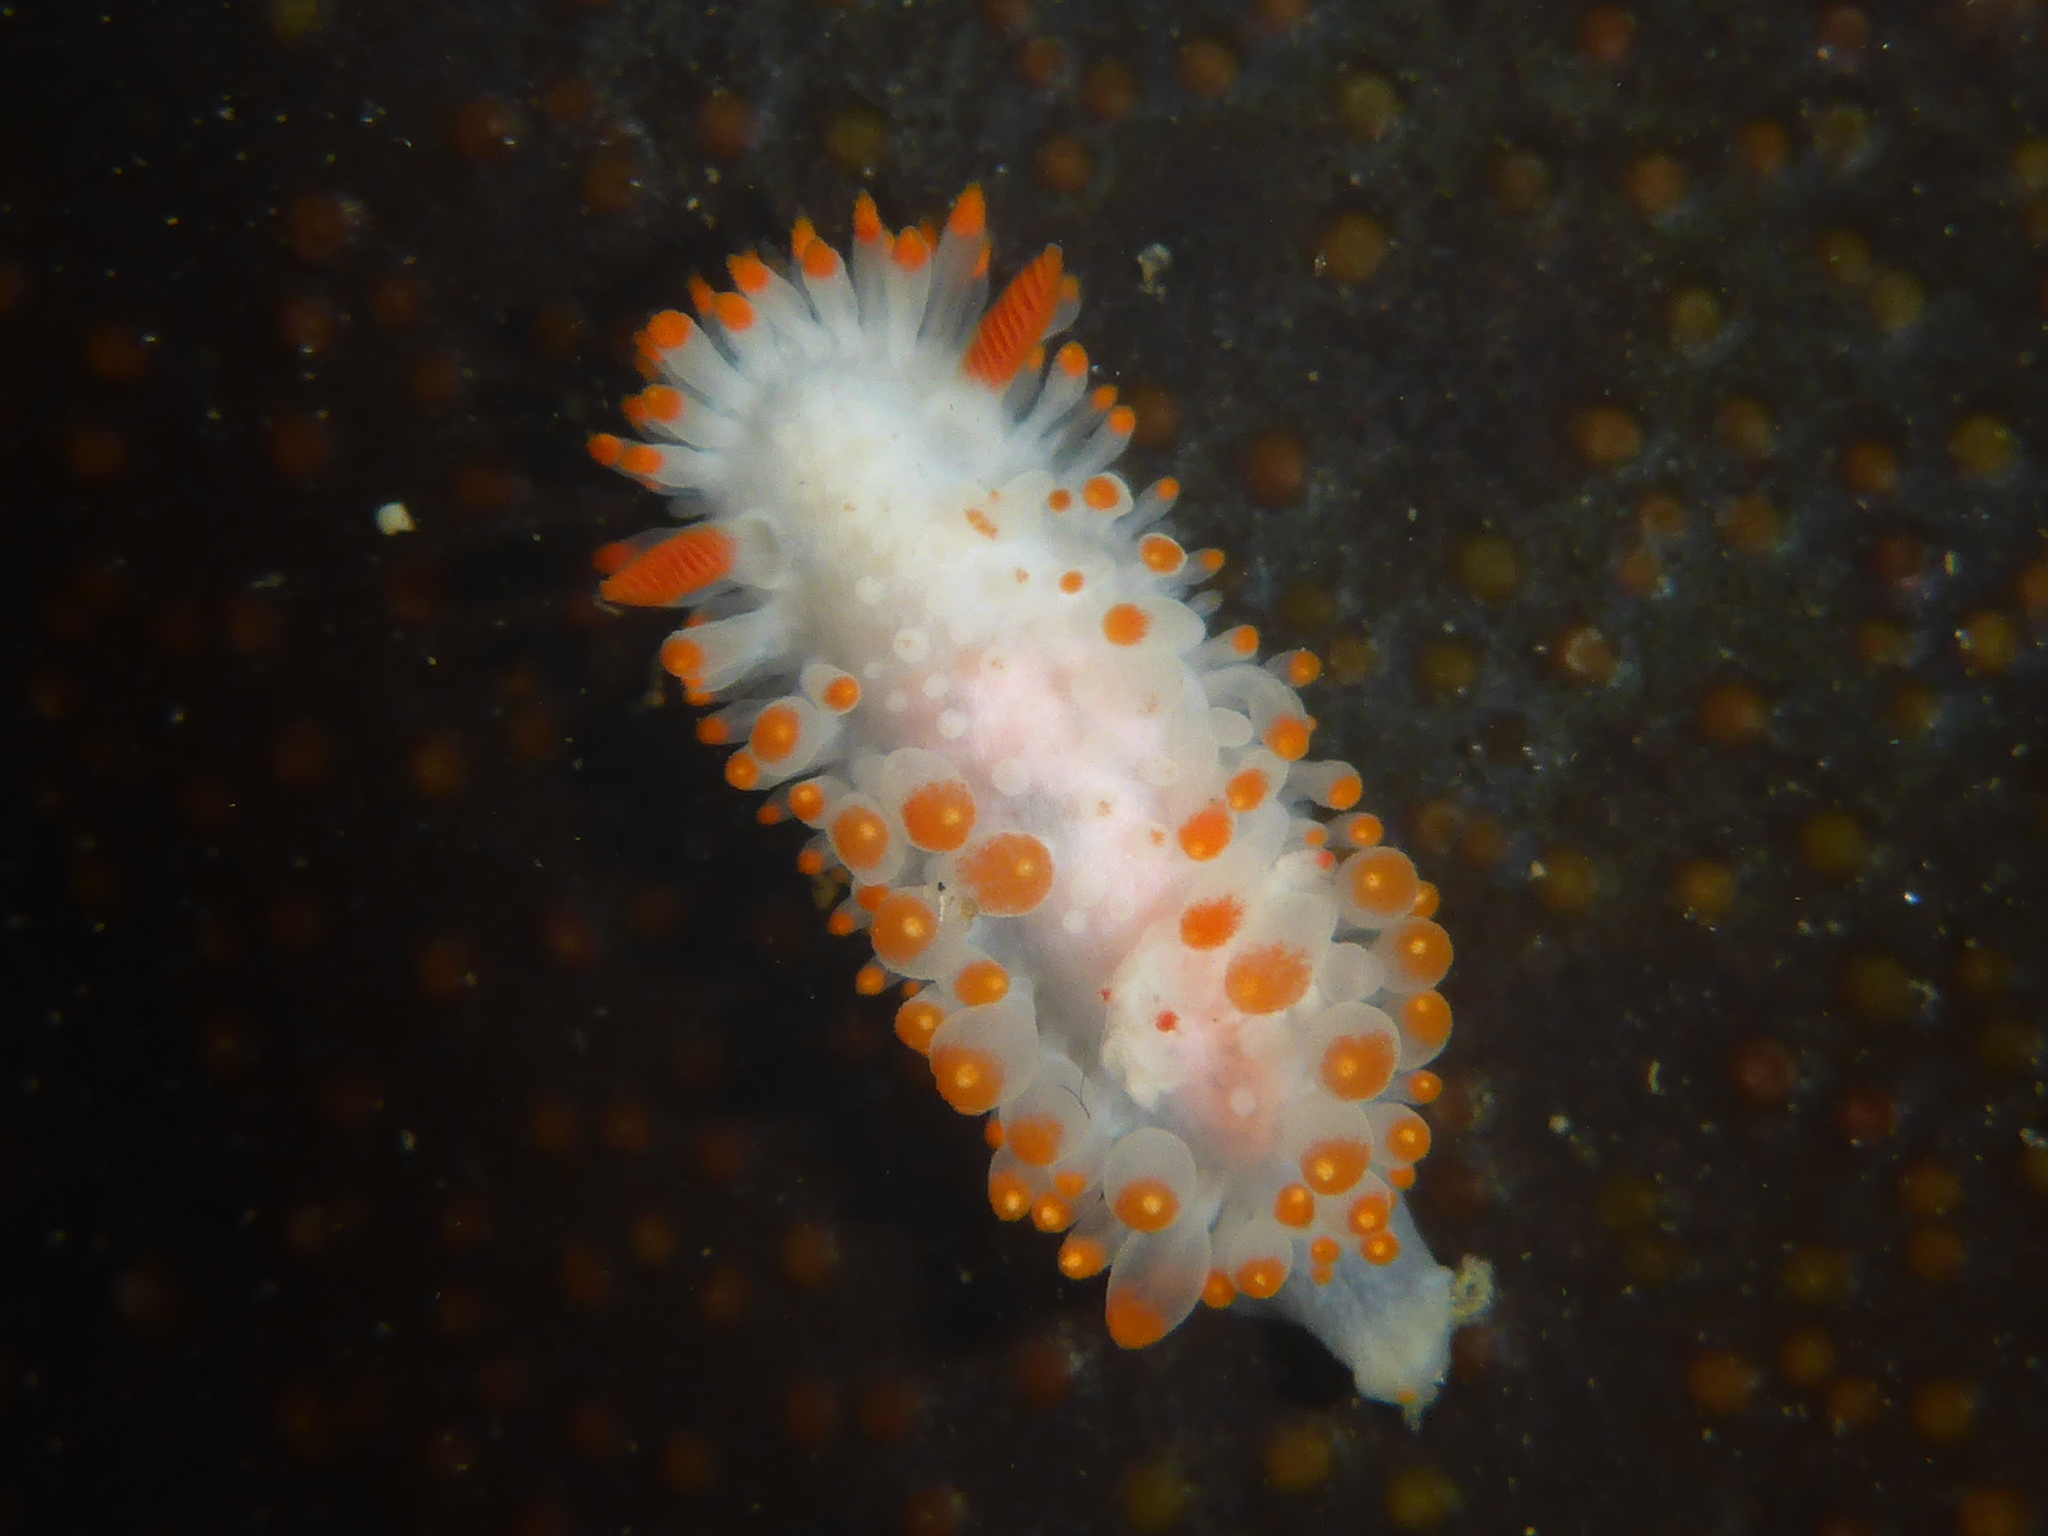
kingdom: Animalia
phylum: Mollusca
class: Gastropoda
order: Nudibranchia
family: Polyceridae
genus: Limacia
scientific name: Limacia cockerelli
